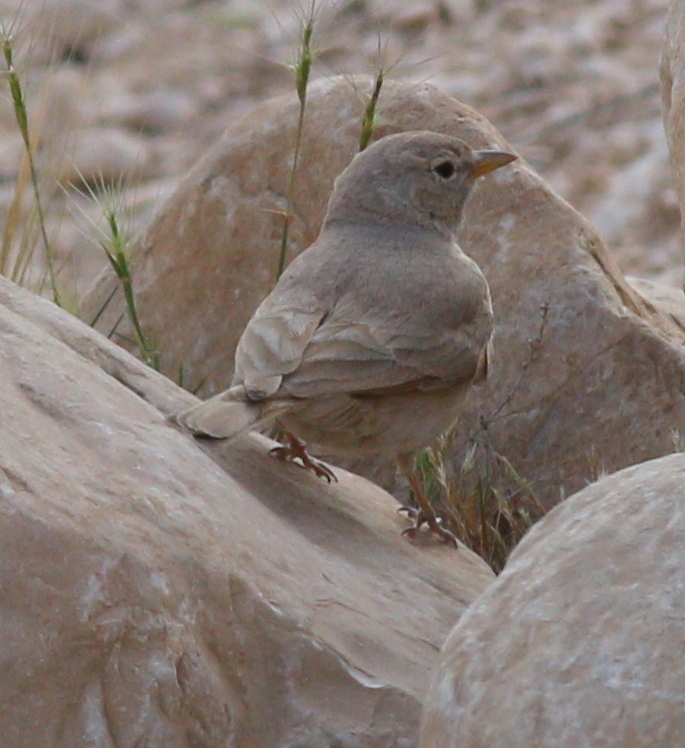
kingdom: Animalia
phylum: Chordata
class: Aves
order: Passeriformes
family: Alaudidae
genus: Ammomanes
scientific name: Ammomanes deserti
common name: Desert lark
